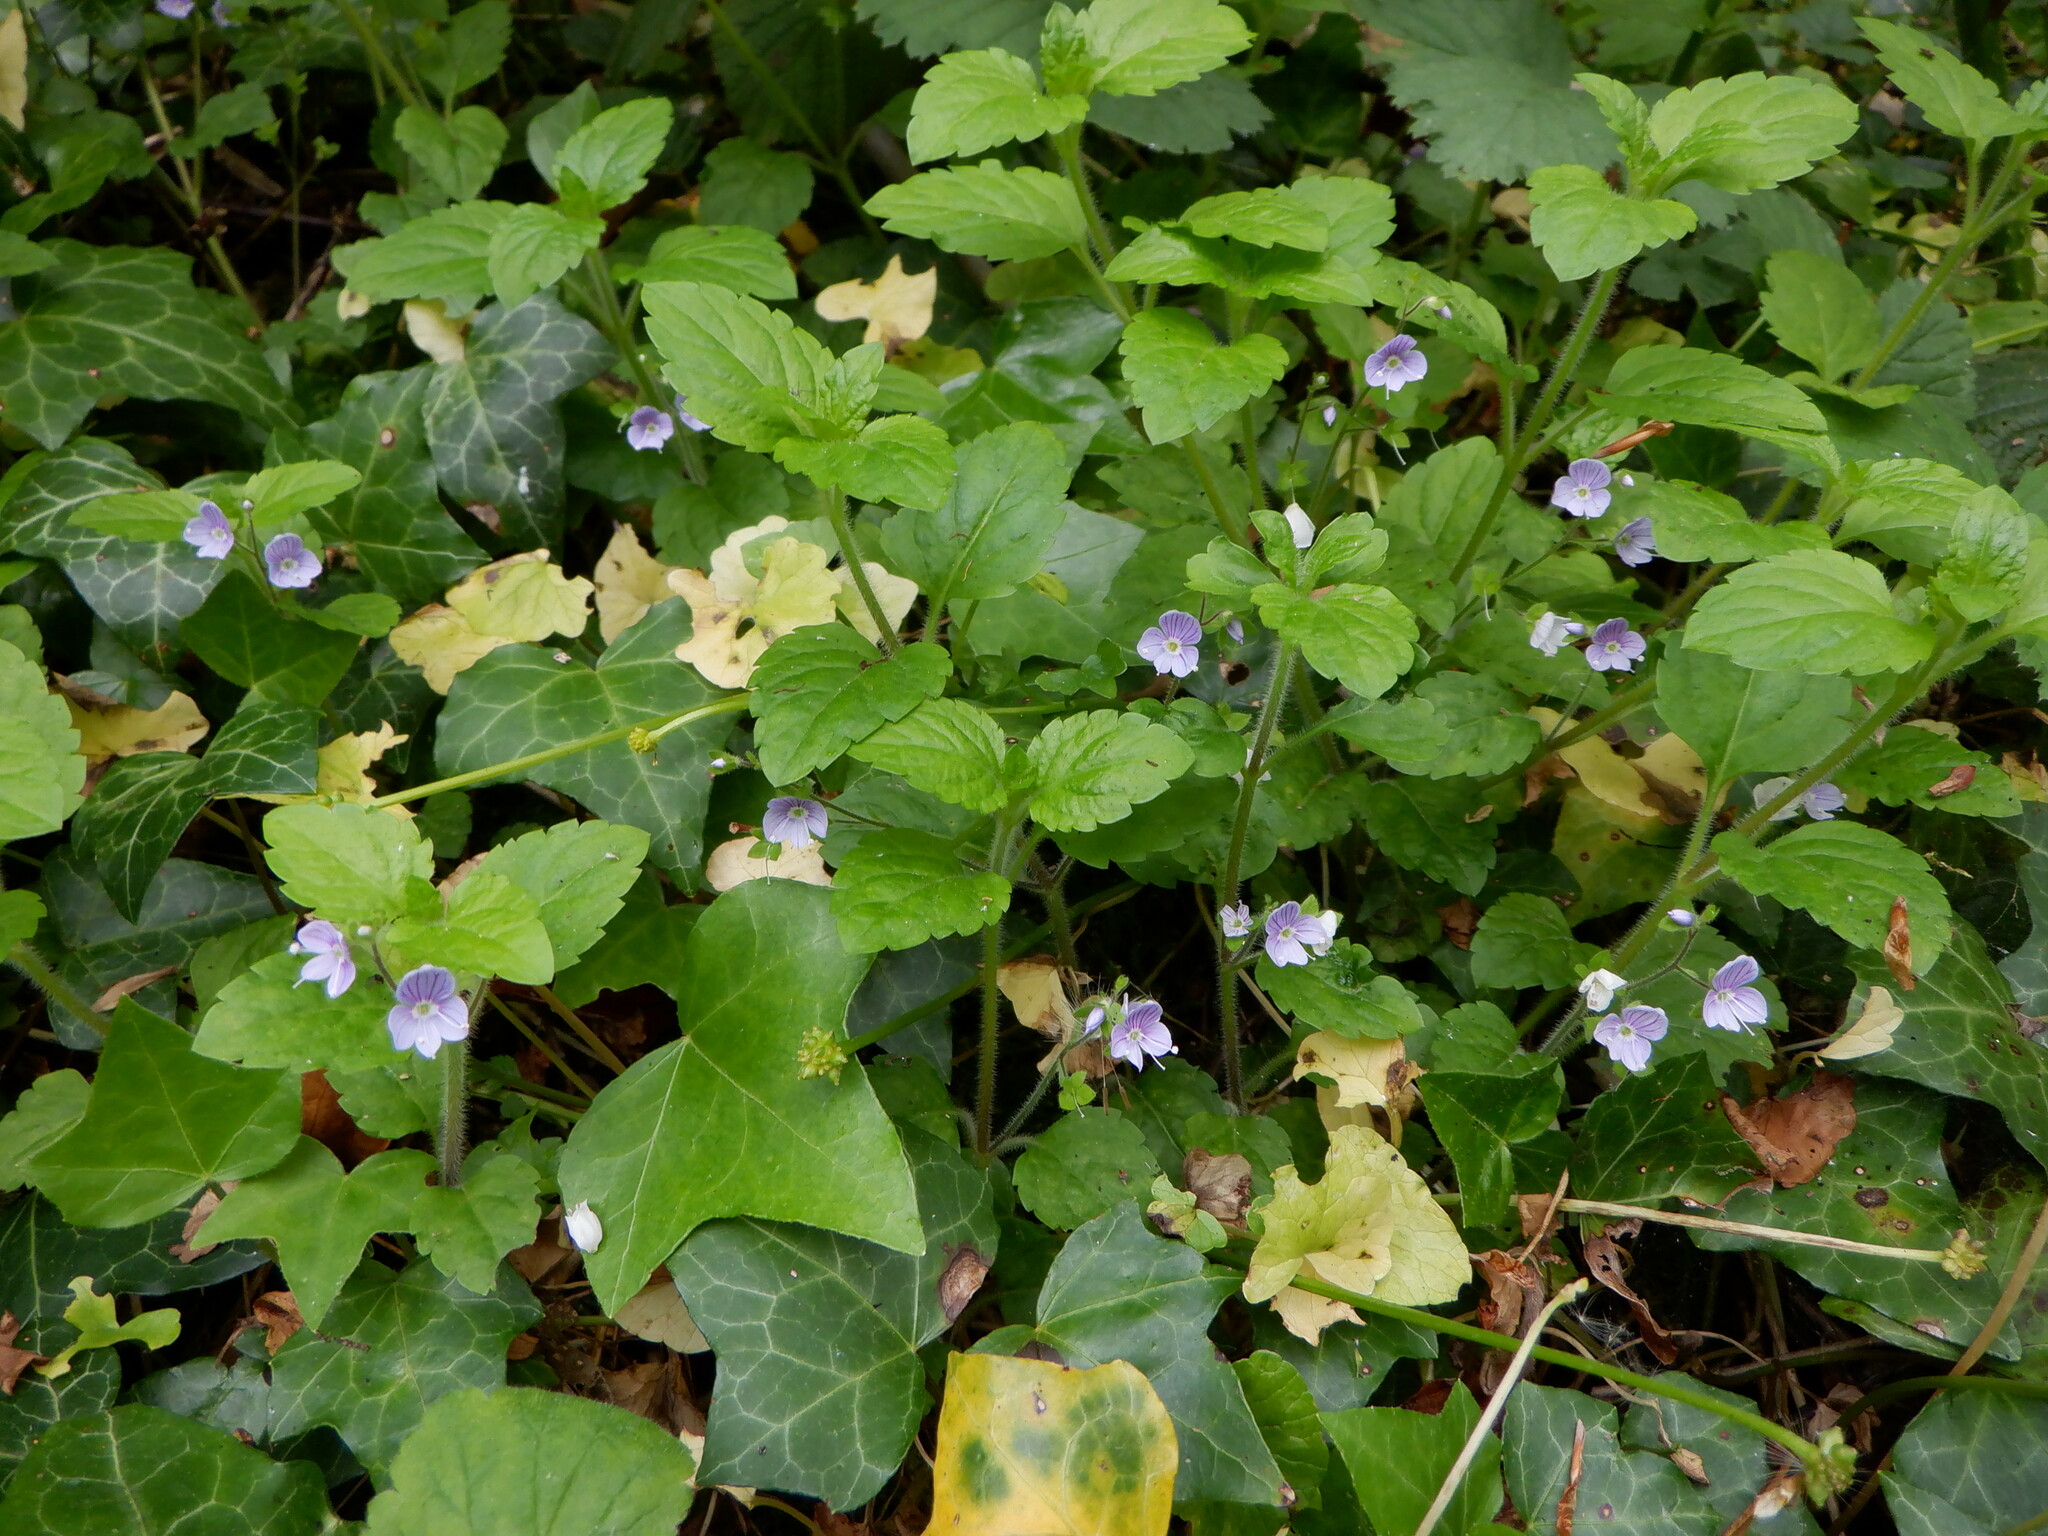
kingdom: Plantae
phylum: Tracheophyta
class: Magnoliopsida
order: Lamiales
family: Plantaginaceae
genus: Veronica
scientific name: Veronica montana
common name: Wood speedwell
